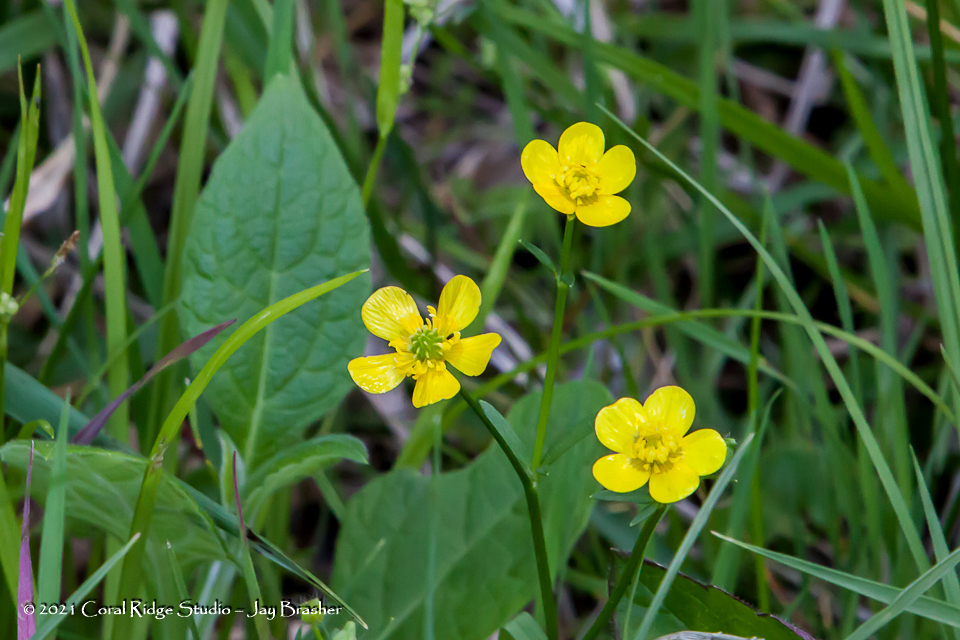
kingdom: Plantae
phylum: Tracheophyta
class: Magnoliopsida
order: Ranunculales
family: Ranunculaceae
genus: Ranunculus
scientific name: Ranunculus hispidus
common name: Bristly buttercup
